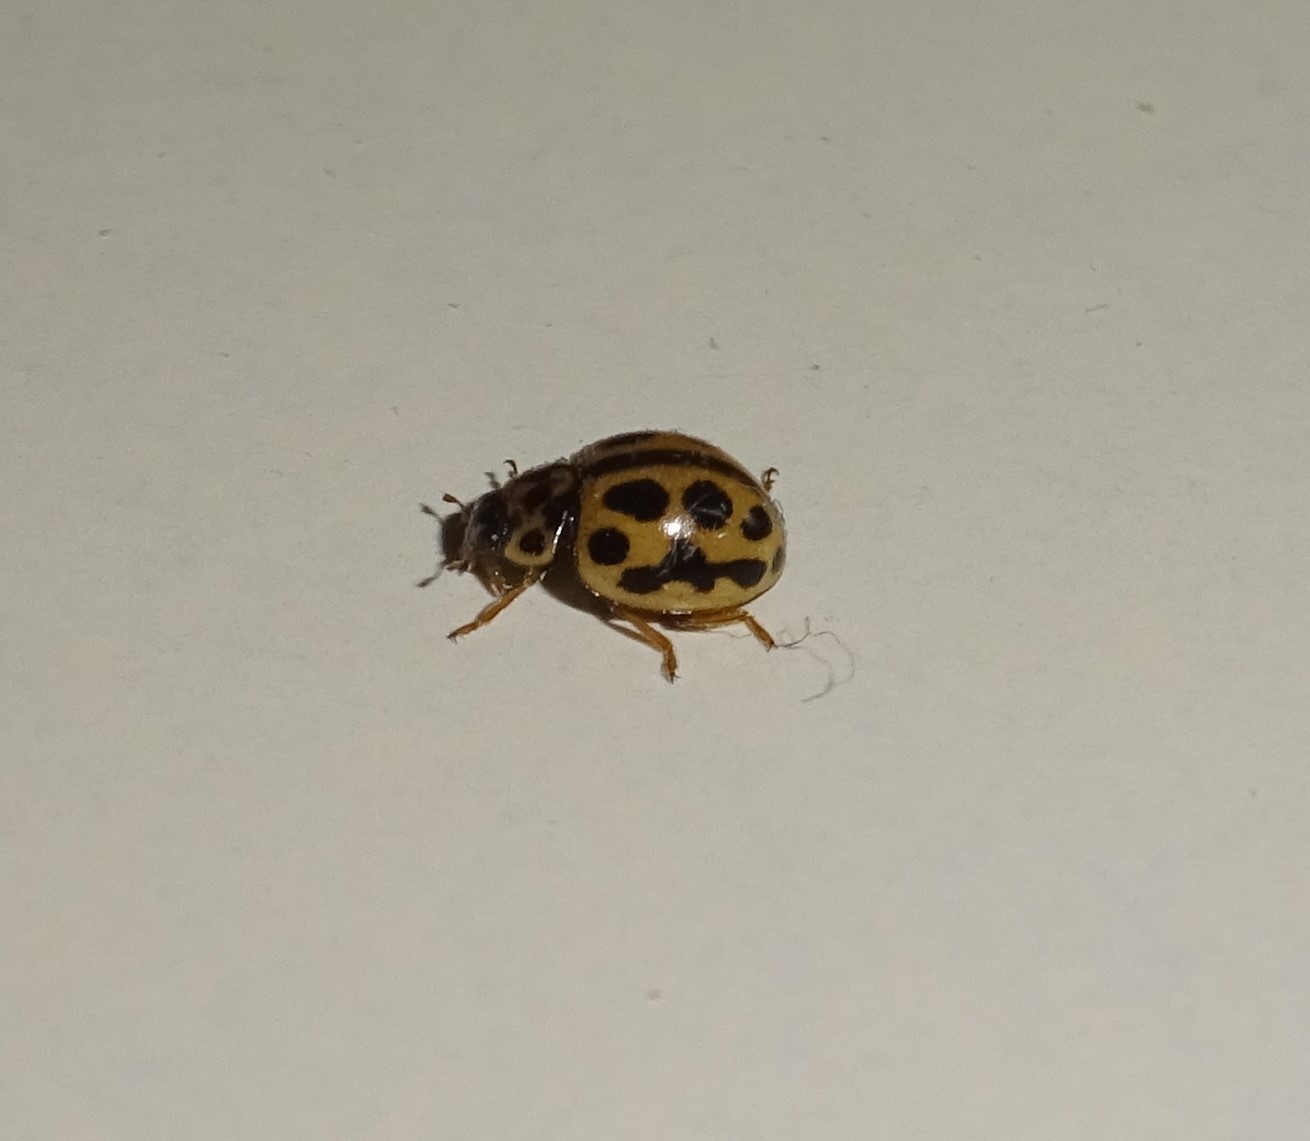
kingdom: Animalia
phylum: Arthropoda
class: Insecta
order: Coleoptera
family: Coccinellidae
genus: Tytthaspis
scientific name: Tytthaspis sedecimpunctata
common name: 16-spot ladybird
